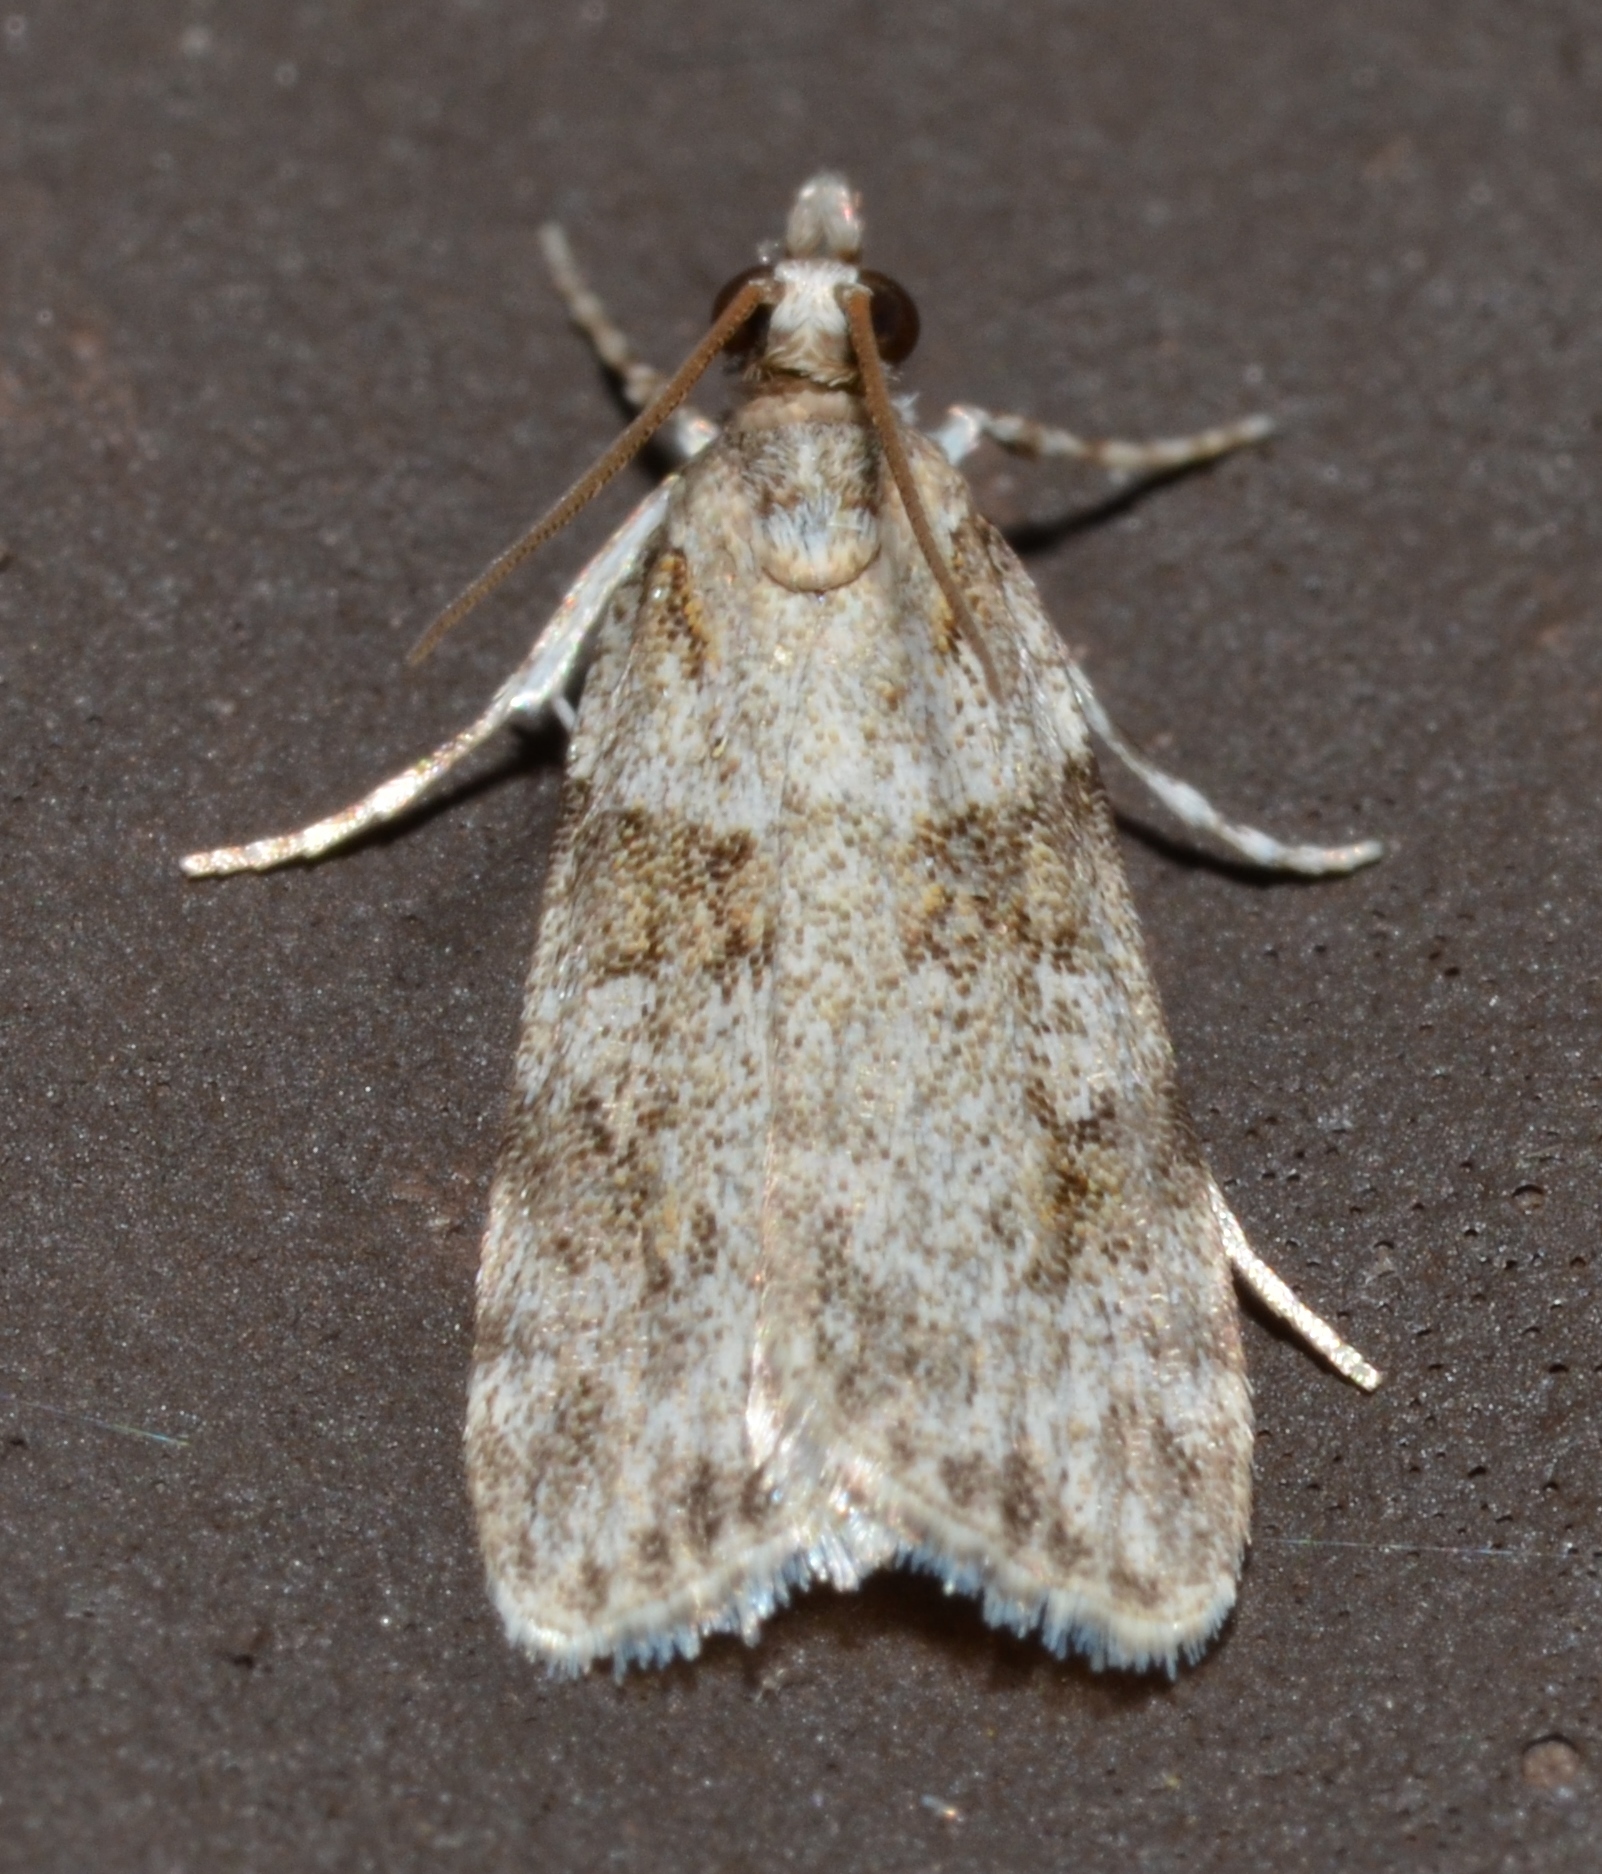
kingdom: Animalia
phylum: Arthropoda
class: Insecta
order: Lepidoptera
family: Crambidae
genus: Scoparia
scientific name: Scoparia biplagialis
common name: Double-striped scoparia moth
